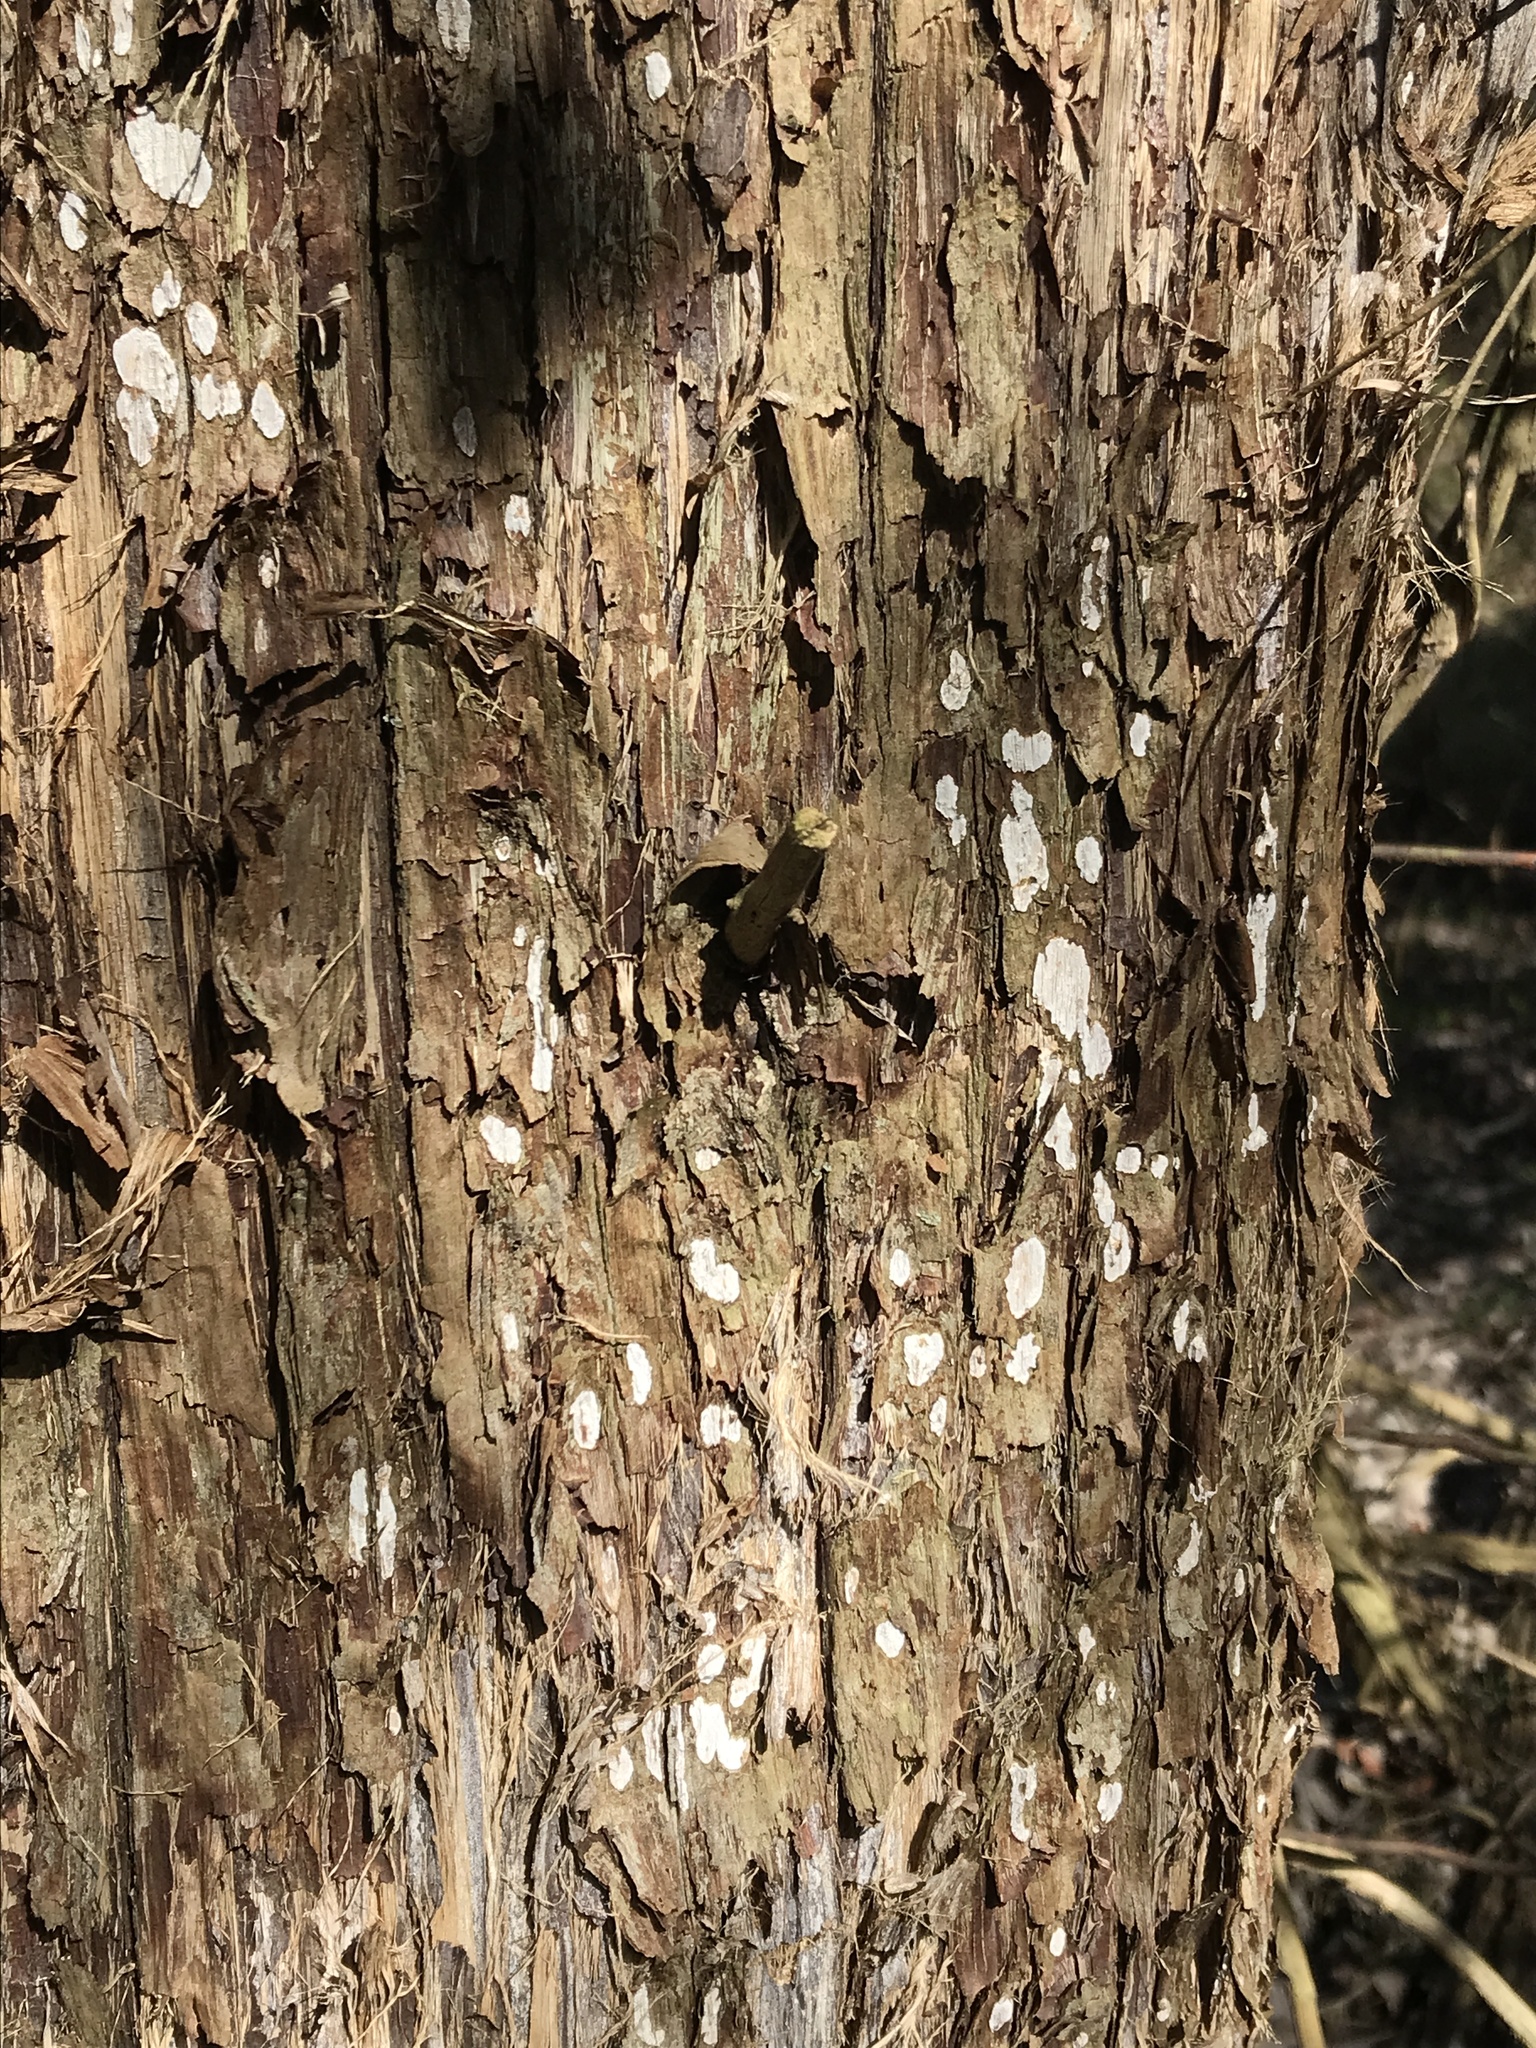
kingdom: Fungi
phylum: Basidiomycota
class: Agaricomycetes
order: Agaricales
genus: Dendrothele
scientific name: Dendrothele nivosa
